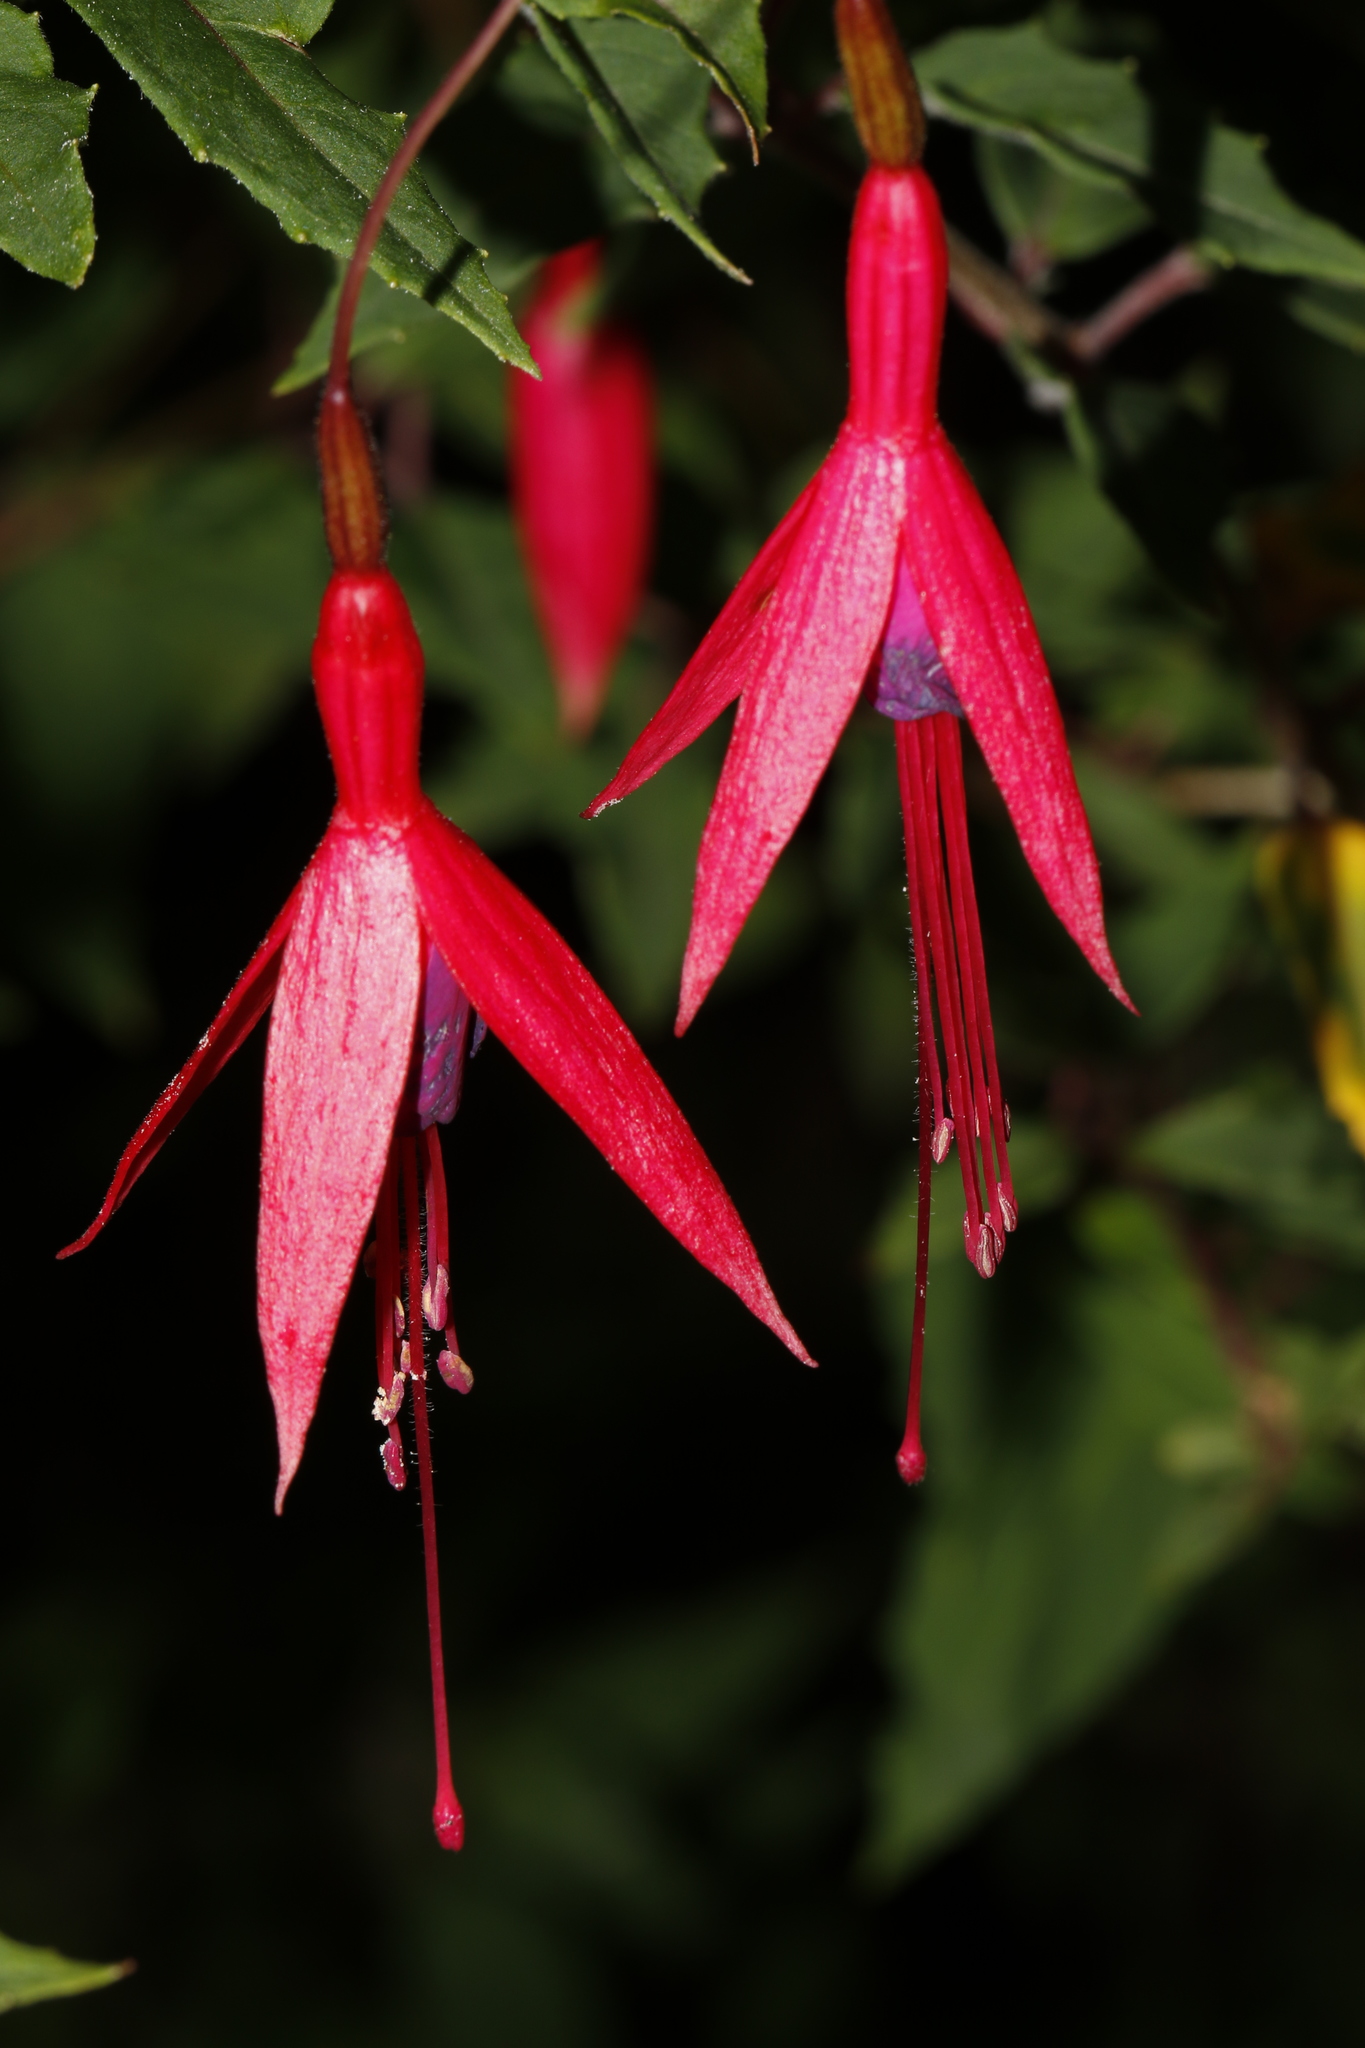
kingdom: Plantae
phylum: Tracheophyta
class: Magnoliopsida
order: Myrtales
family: Onagraceae
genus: Fuchsia
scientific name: Fuchsia magellanica
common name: Hardy fuchsia
